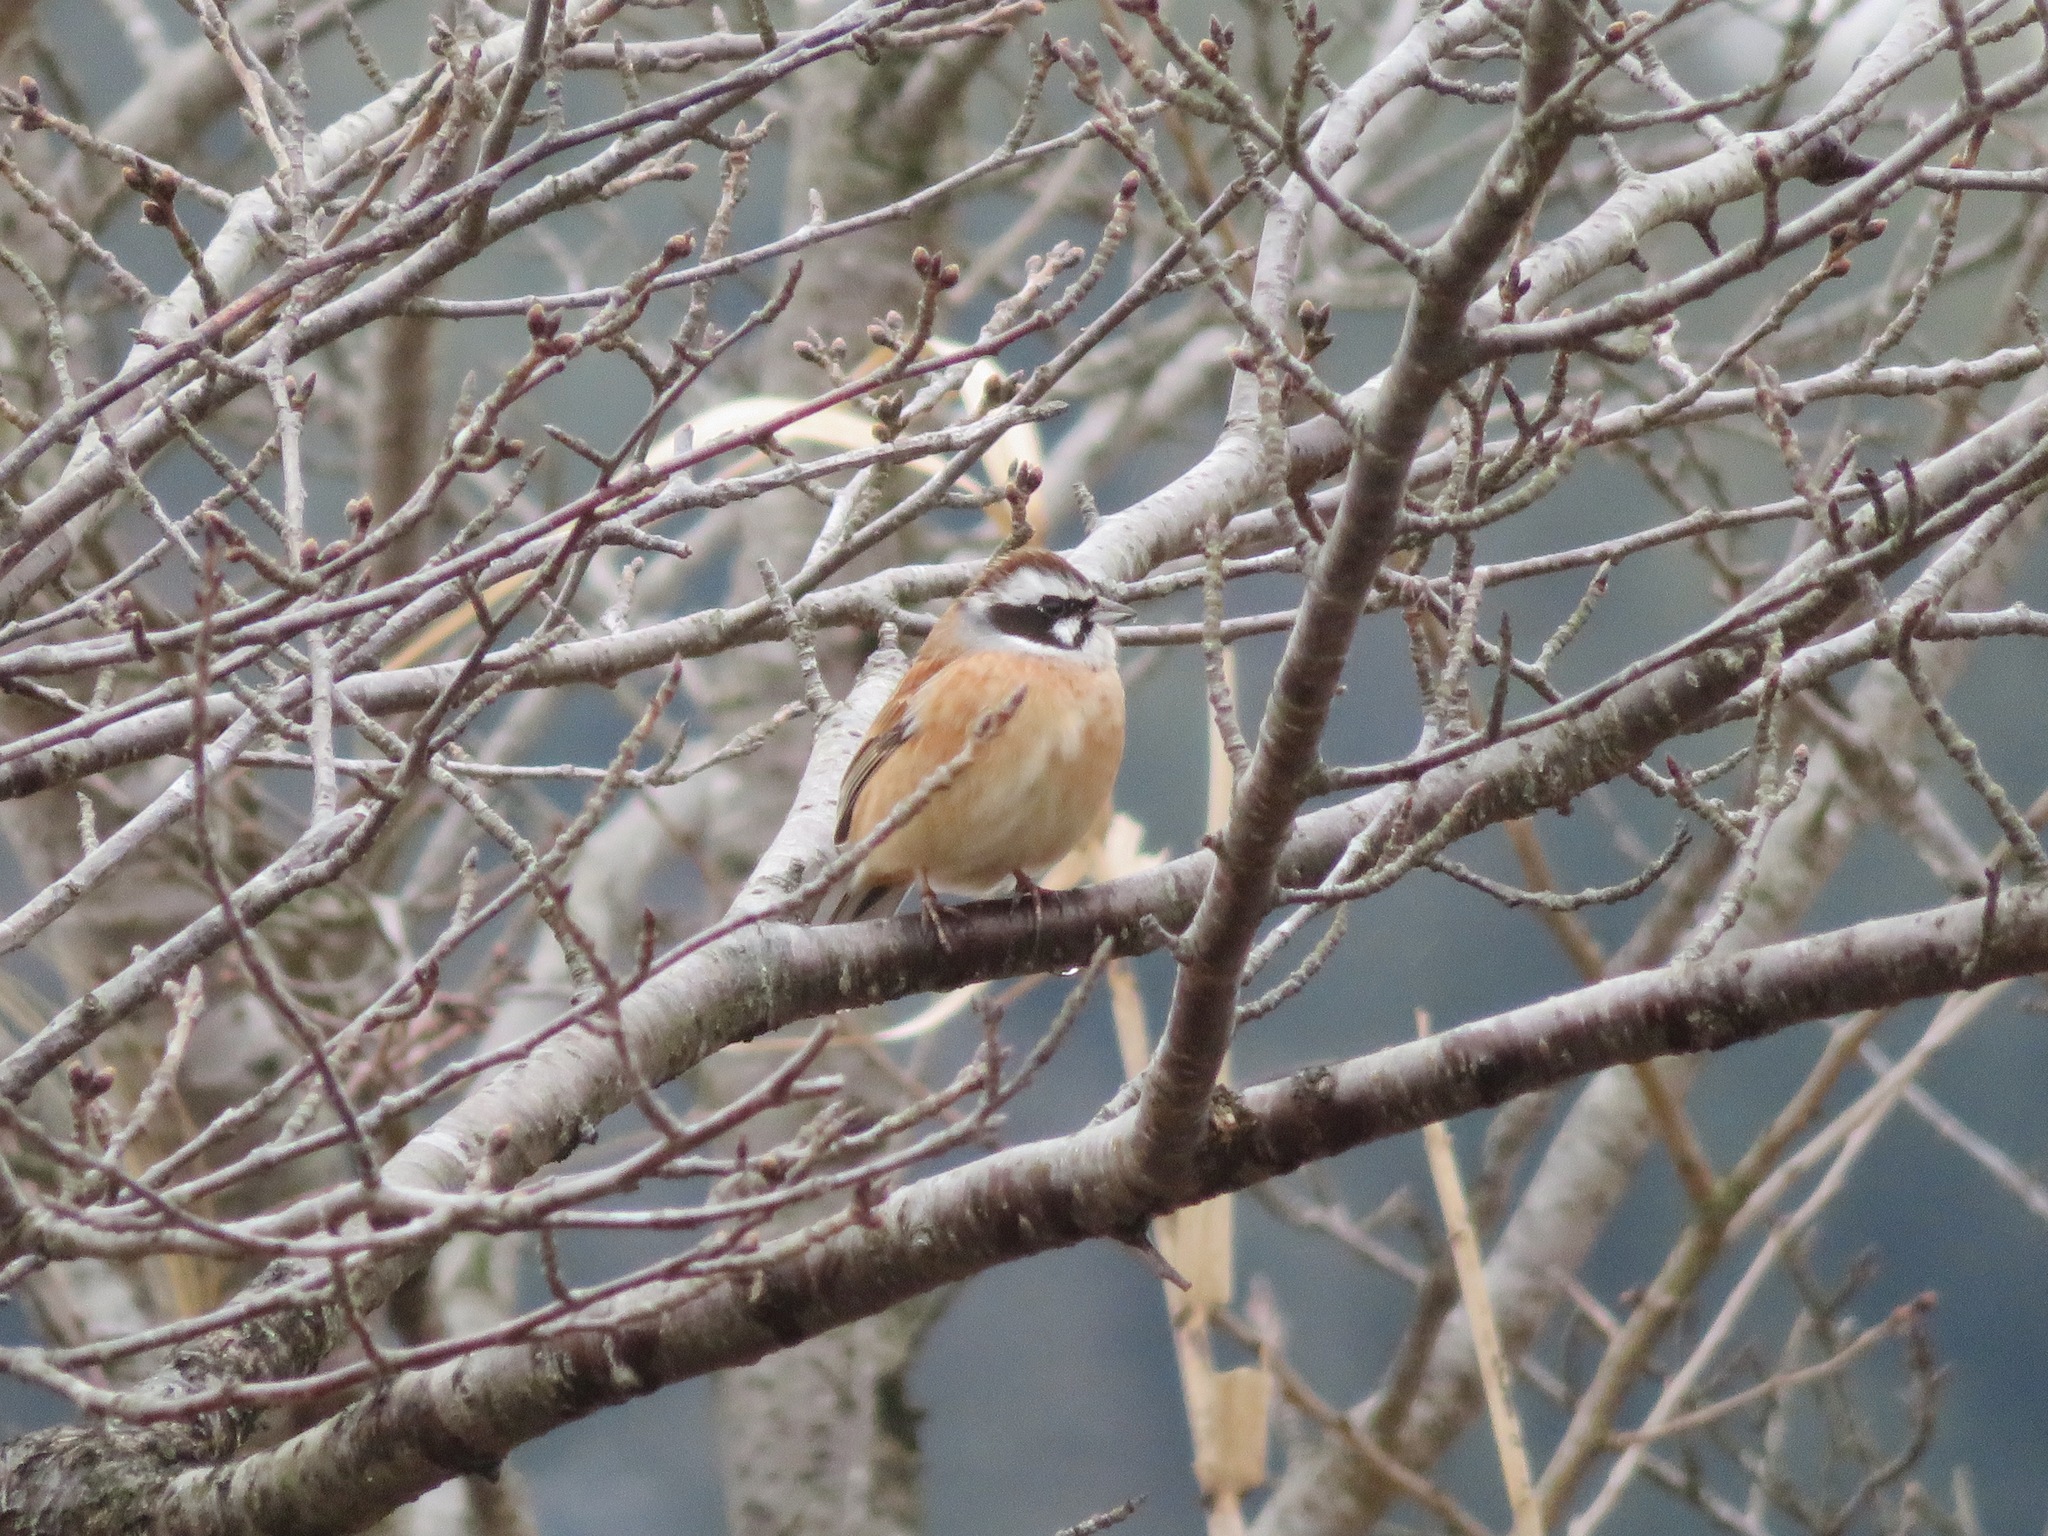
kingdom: Animalia
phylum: Chordata
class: Aves
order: Passeriformes
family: Emberizidae
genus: Emberiza
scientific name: Emberiza cioides
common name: Meadow bunting
